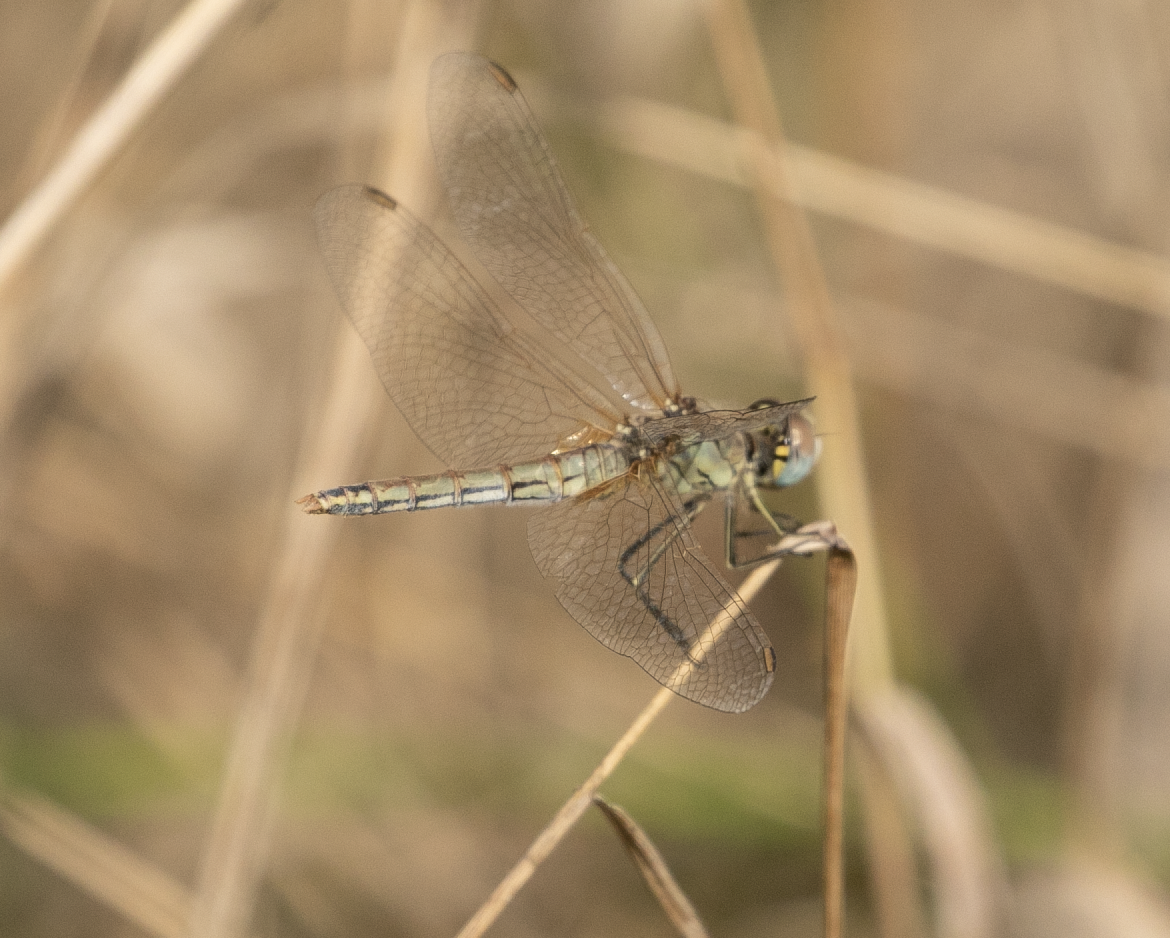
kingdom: Animalia
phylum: Arthropoda
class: Insecta
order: Odonata
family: Libellulidae
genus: Sympetrum
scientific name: Sympetrum fonscolombii
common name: Red-veined darter
